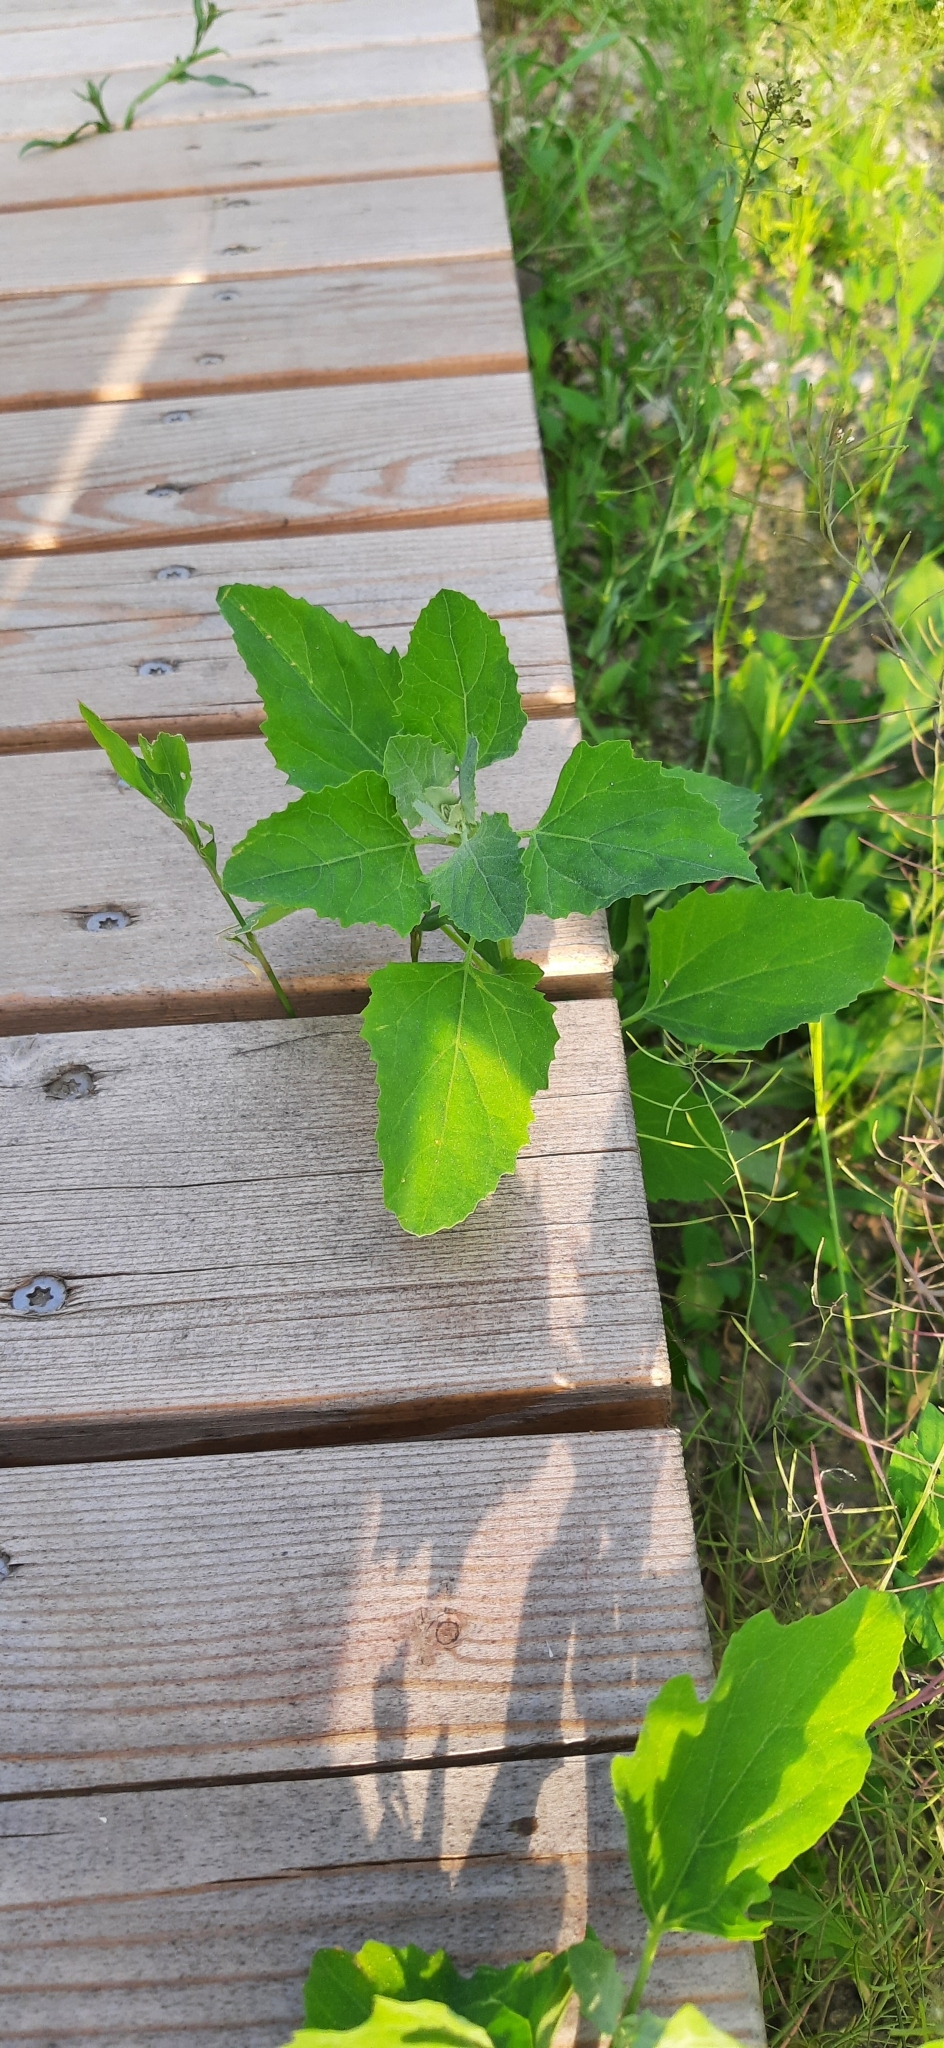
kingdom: Plantae
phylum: Tracheophyta
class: Magnoliopsida
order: Caryophyllales
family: Amaranthaceae
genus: Chenopodium
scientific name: Chenopodium album
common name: Fat-hen
